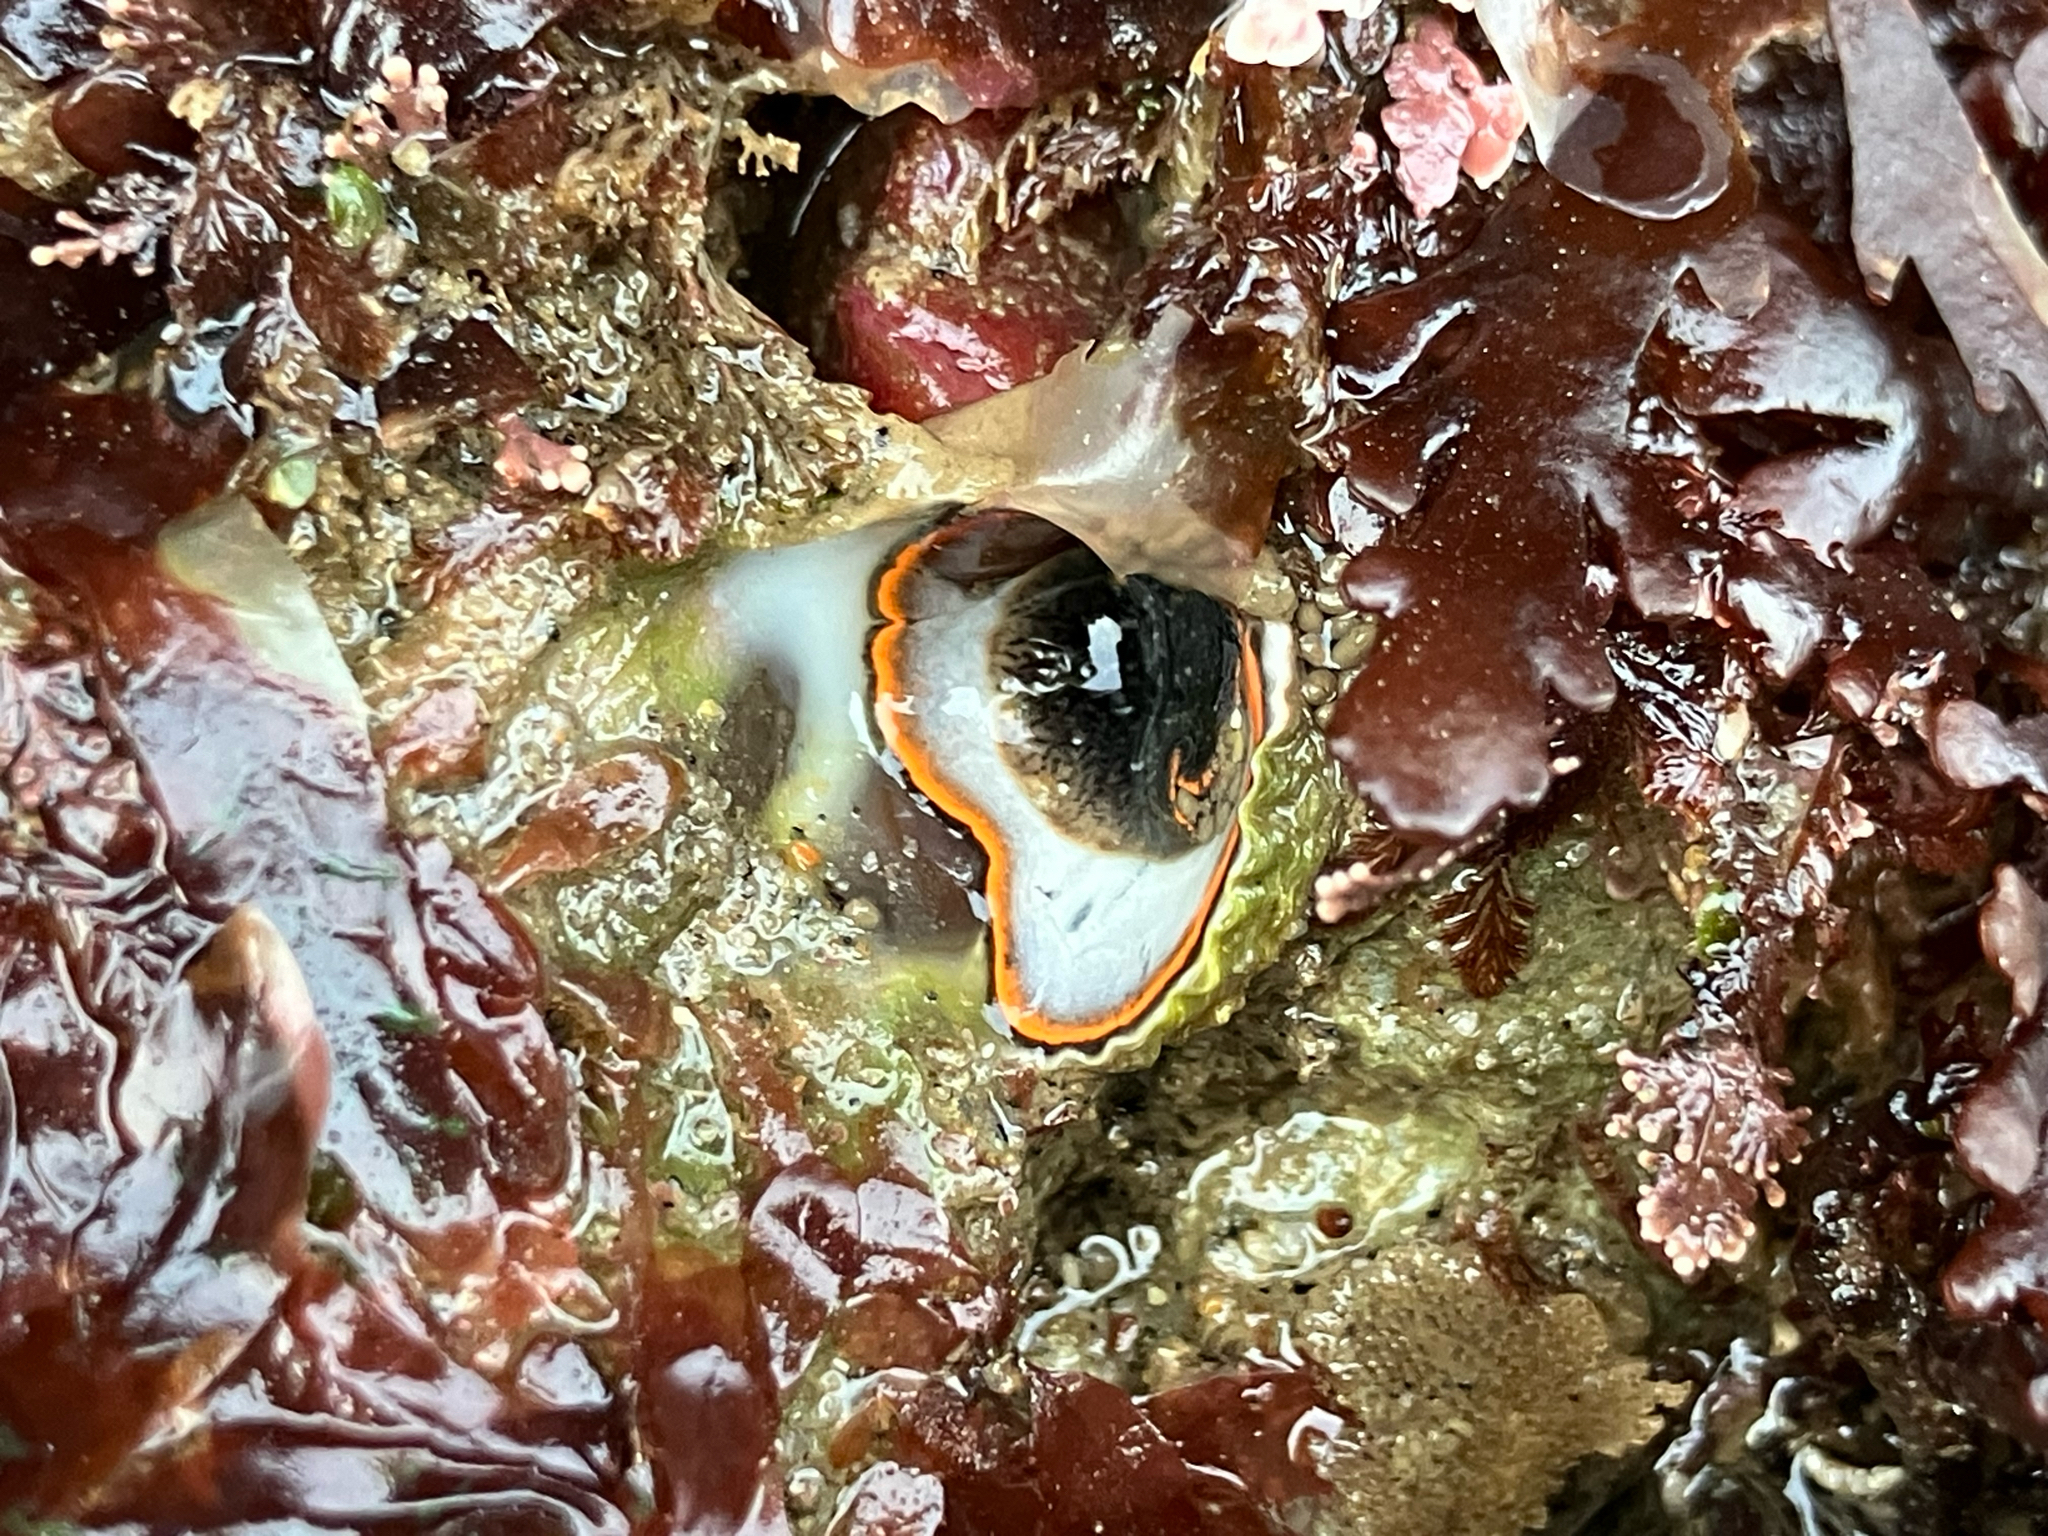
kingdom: Animalia
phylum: Mollusca
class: Gastropoda
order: Littorinimorpha
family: Vermetidae
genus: Thylacodes
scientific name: Thylacodes squamigerus
